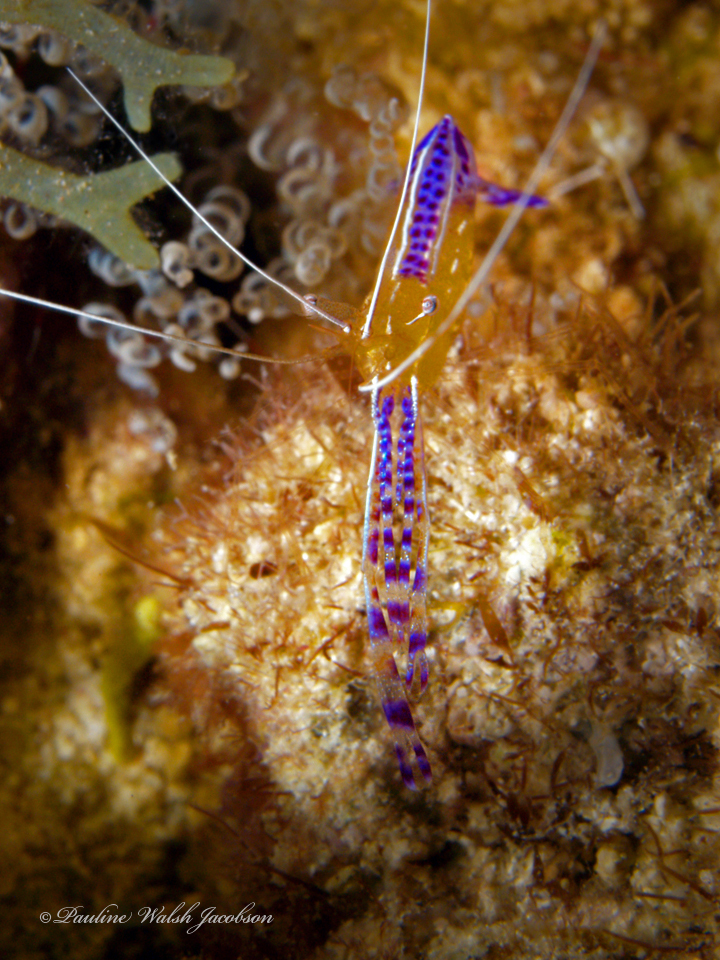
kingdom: Animalia
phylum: Arthropoda
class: Malacostraca
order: Decapoda
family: Palaemonidae
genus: Ancylomenes
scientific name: Ancylomenes pedersoni
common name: Pederson's cleaning shrimp
